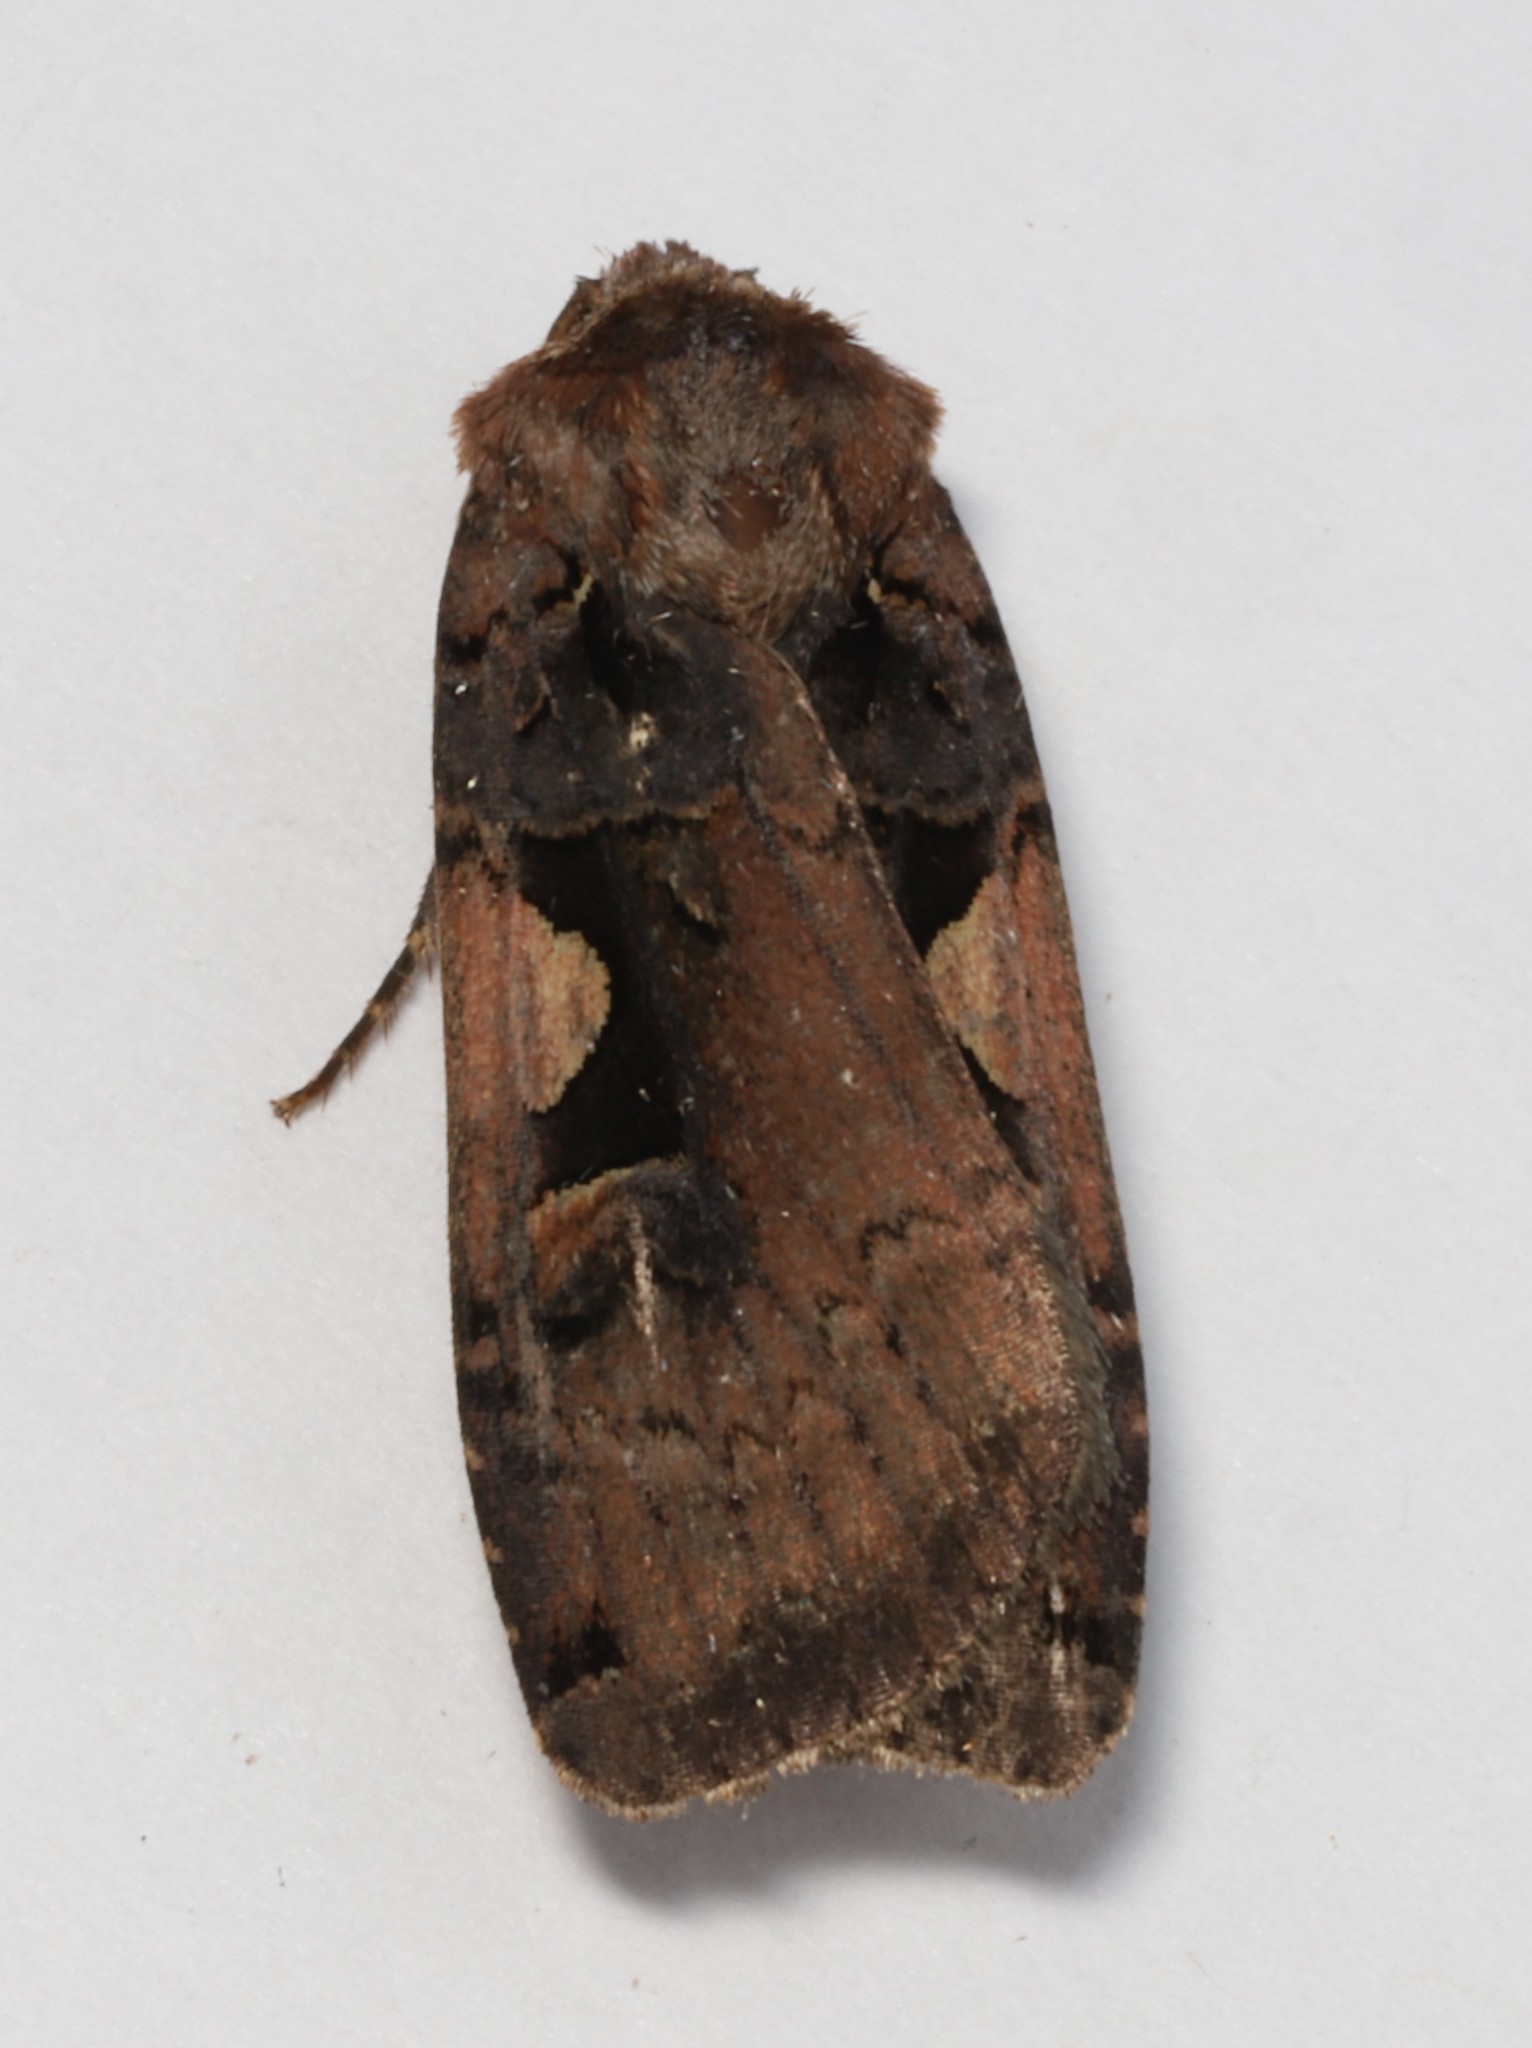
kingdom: Animalia
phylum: Arthropoda
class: Insecta
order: Lepidoptera
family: Noctuidae
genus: Xestia
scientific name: Xestia
